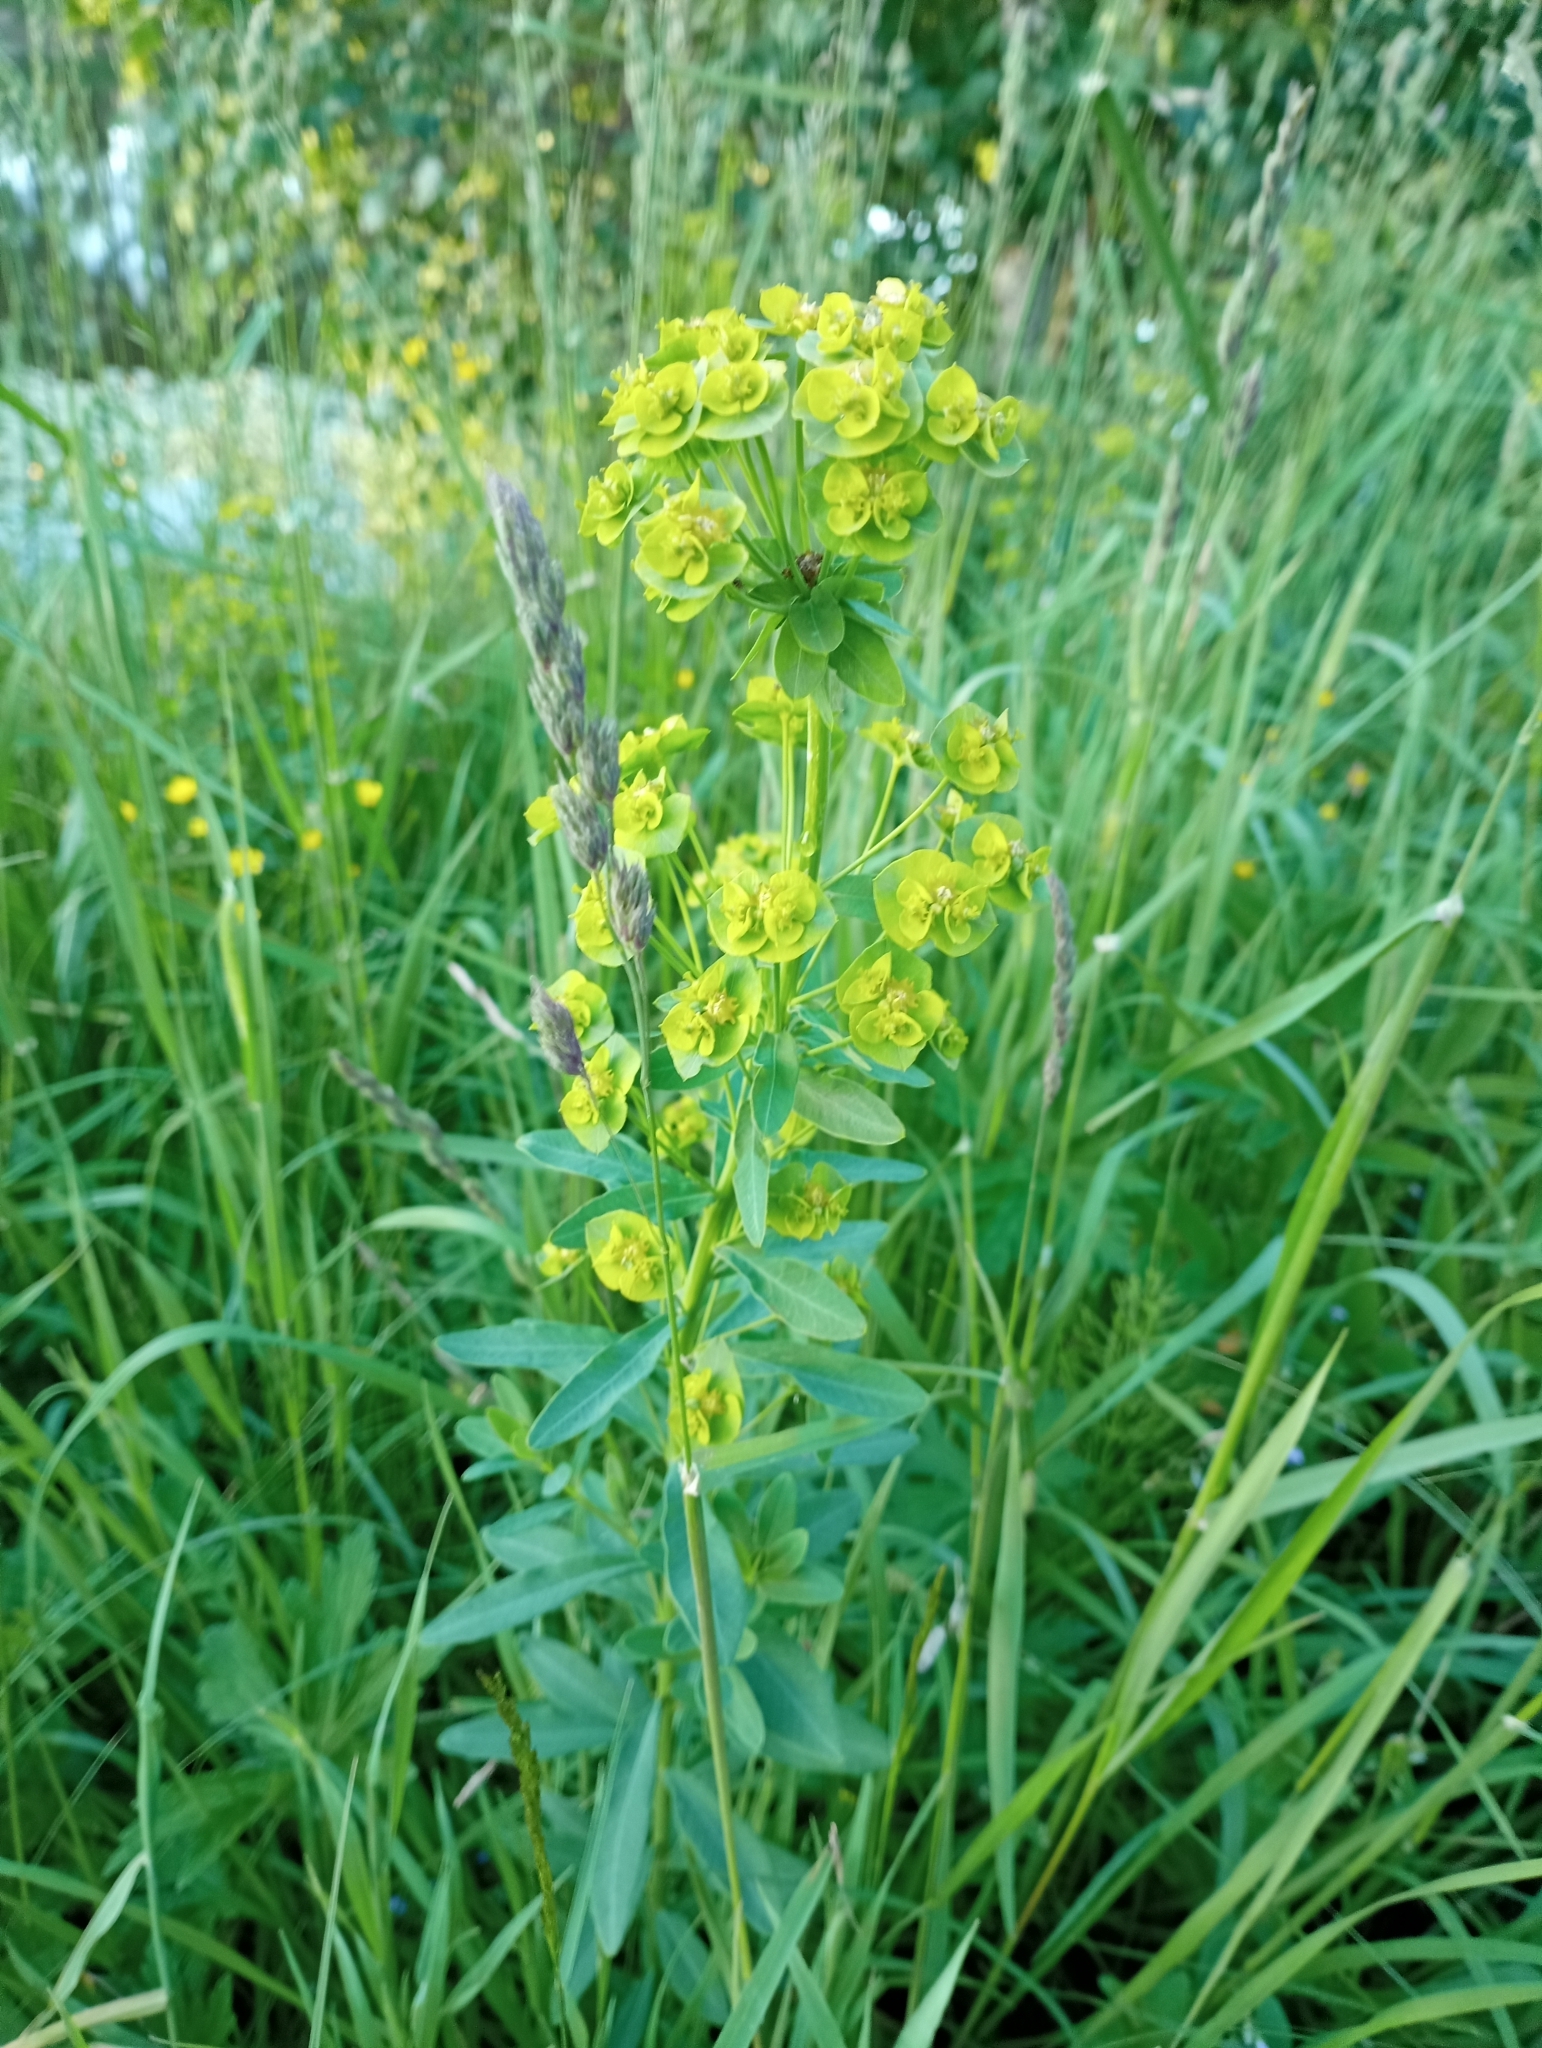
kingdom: Plantae
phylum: Tracheophyta
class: Magnoliopsida
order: Malpighiales
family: Euphorbiaceae
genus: Euphorbia
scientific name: Euphorbia virgata
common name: Leafy spurge
